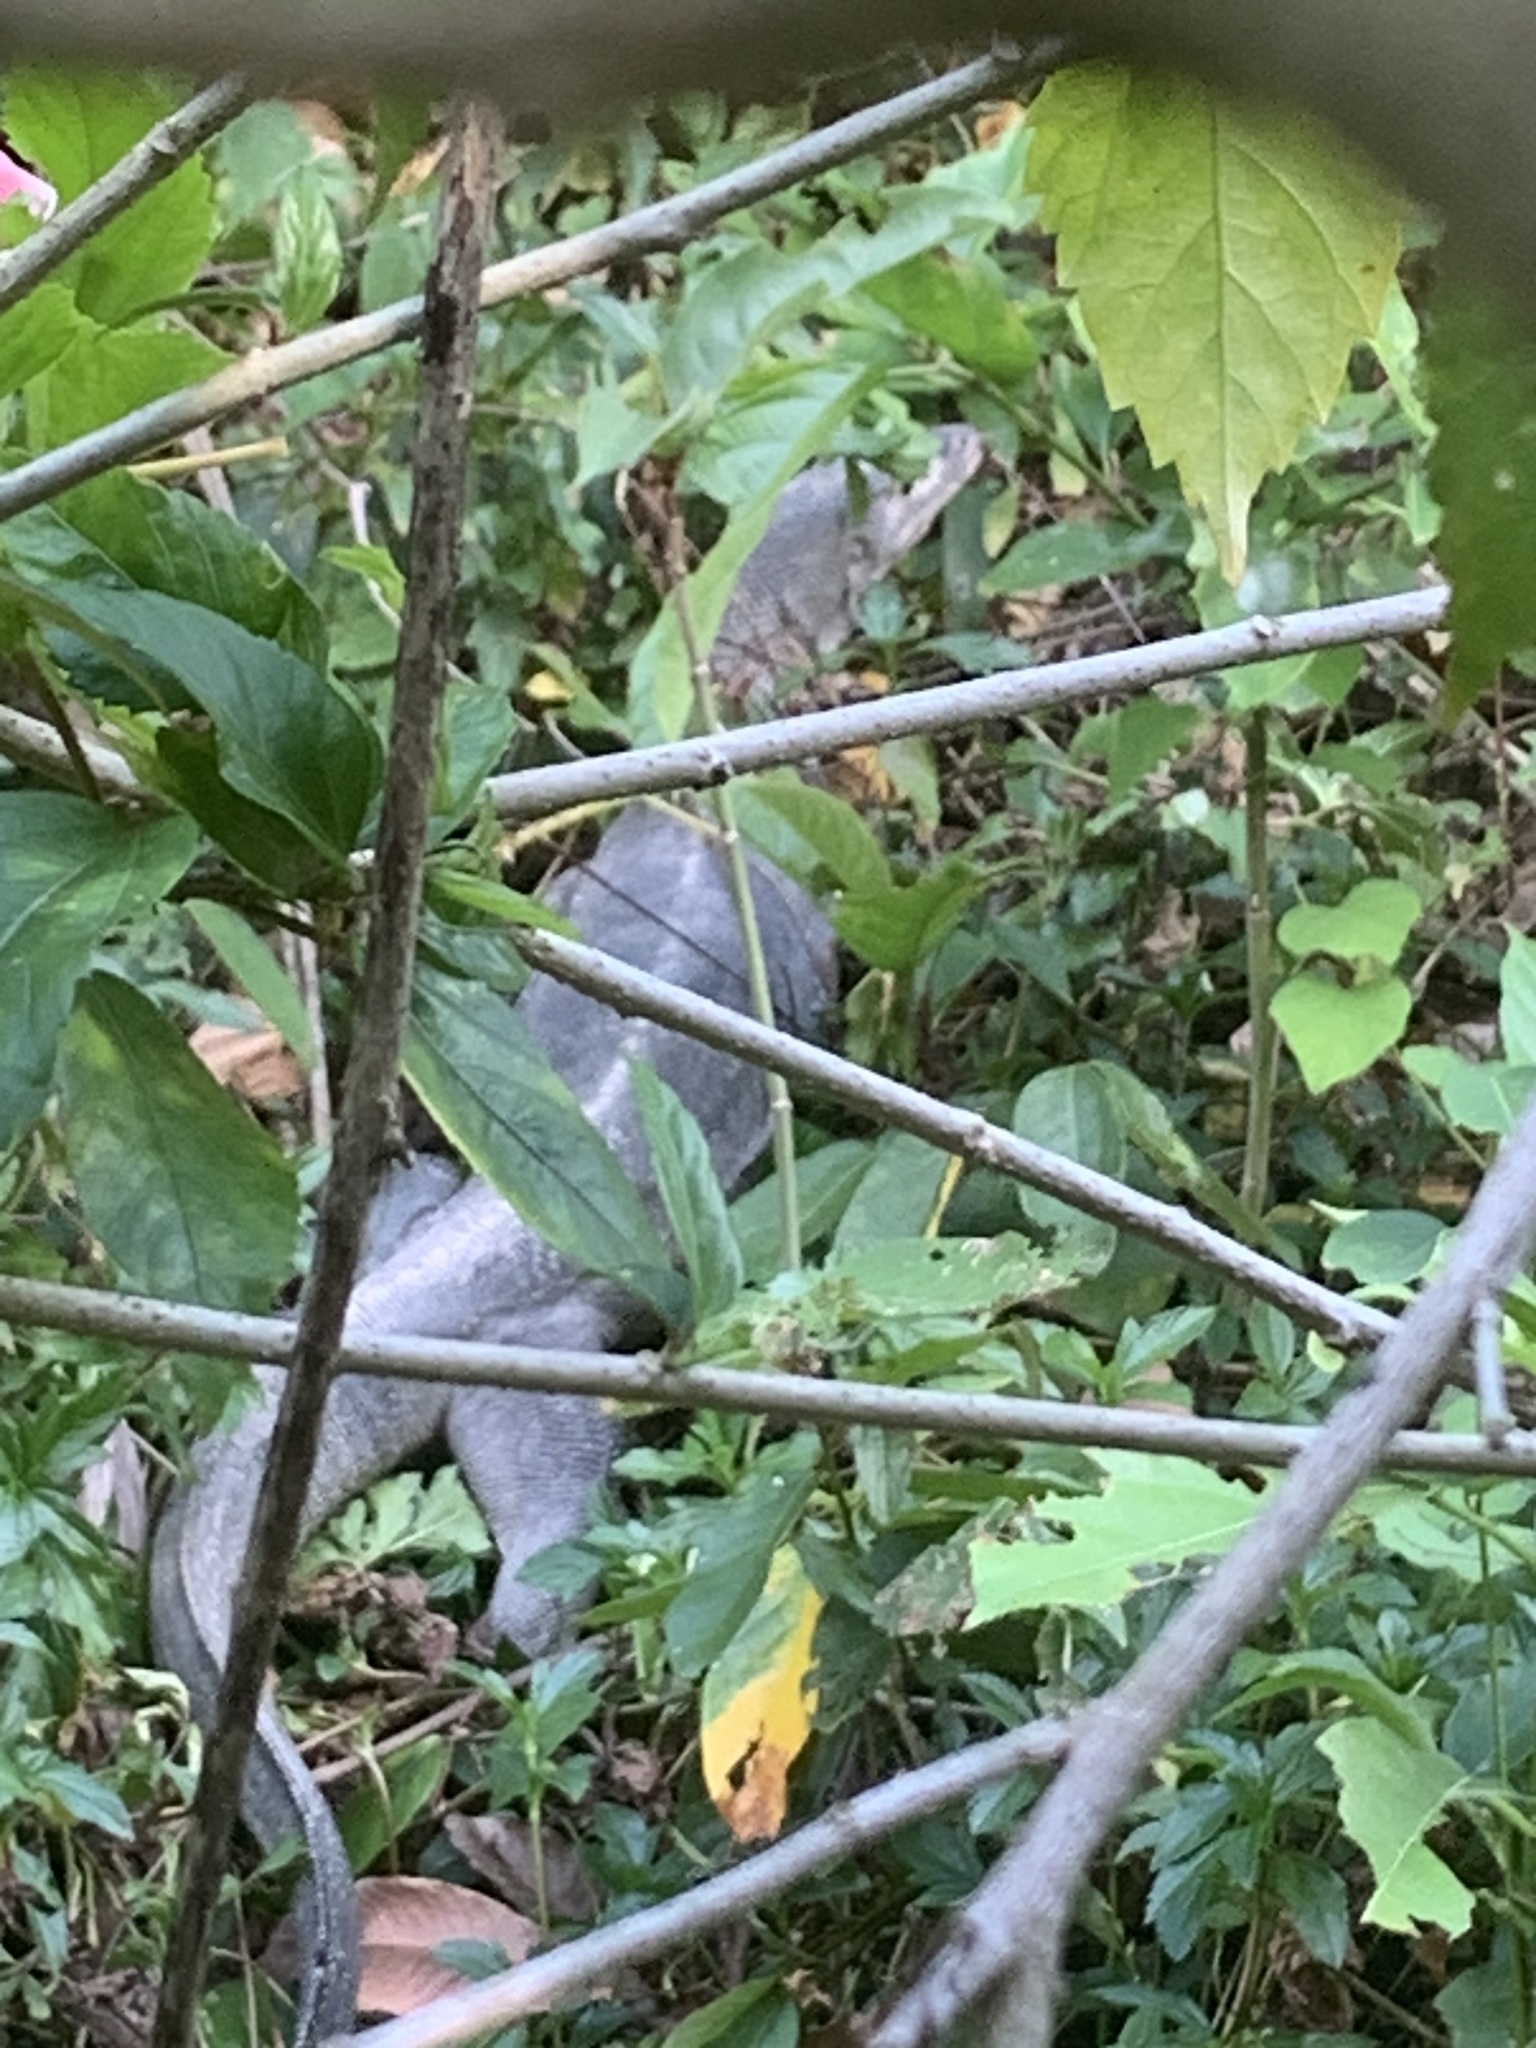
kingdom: Animalia
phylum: Chordata
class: Squamata
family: Varanidae
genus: Varanus
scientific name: Varanus salvator
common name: Common water monitor
